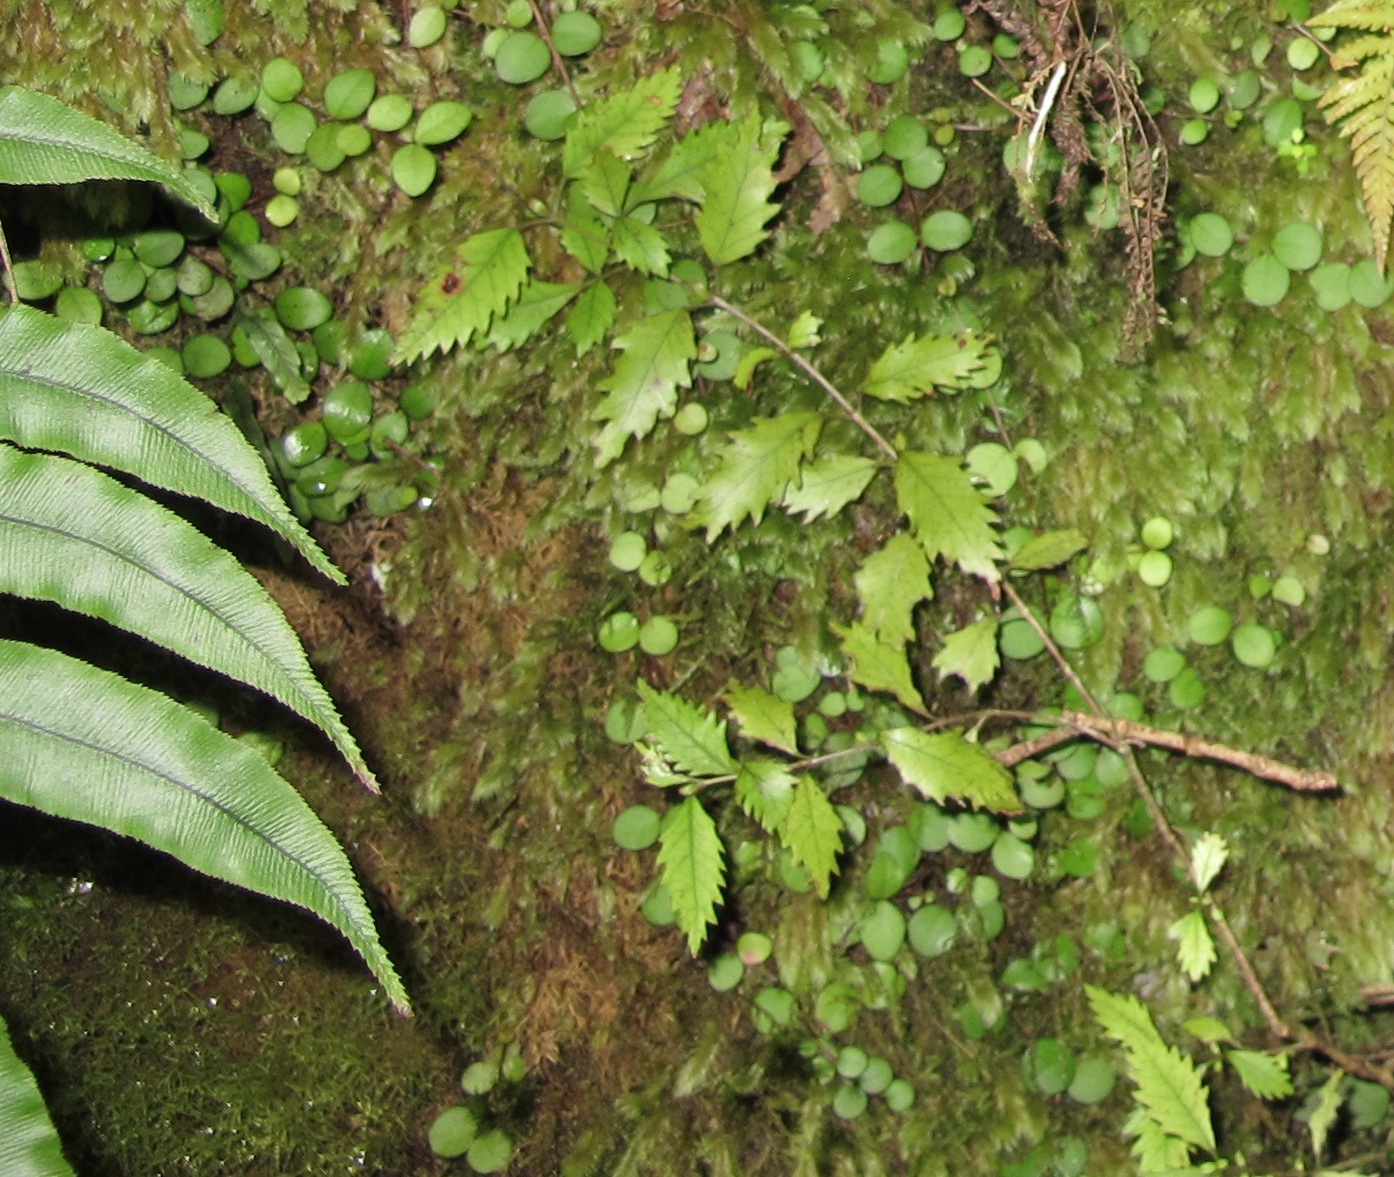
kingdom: Plantae
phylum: Tracheophyta
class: Magnoliopsida
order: Oxalidales
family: Cunoniaceae
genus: Pterophylla
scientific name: Pterophylla racemosa
